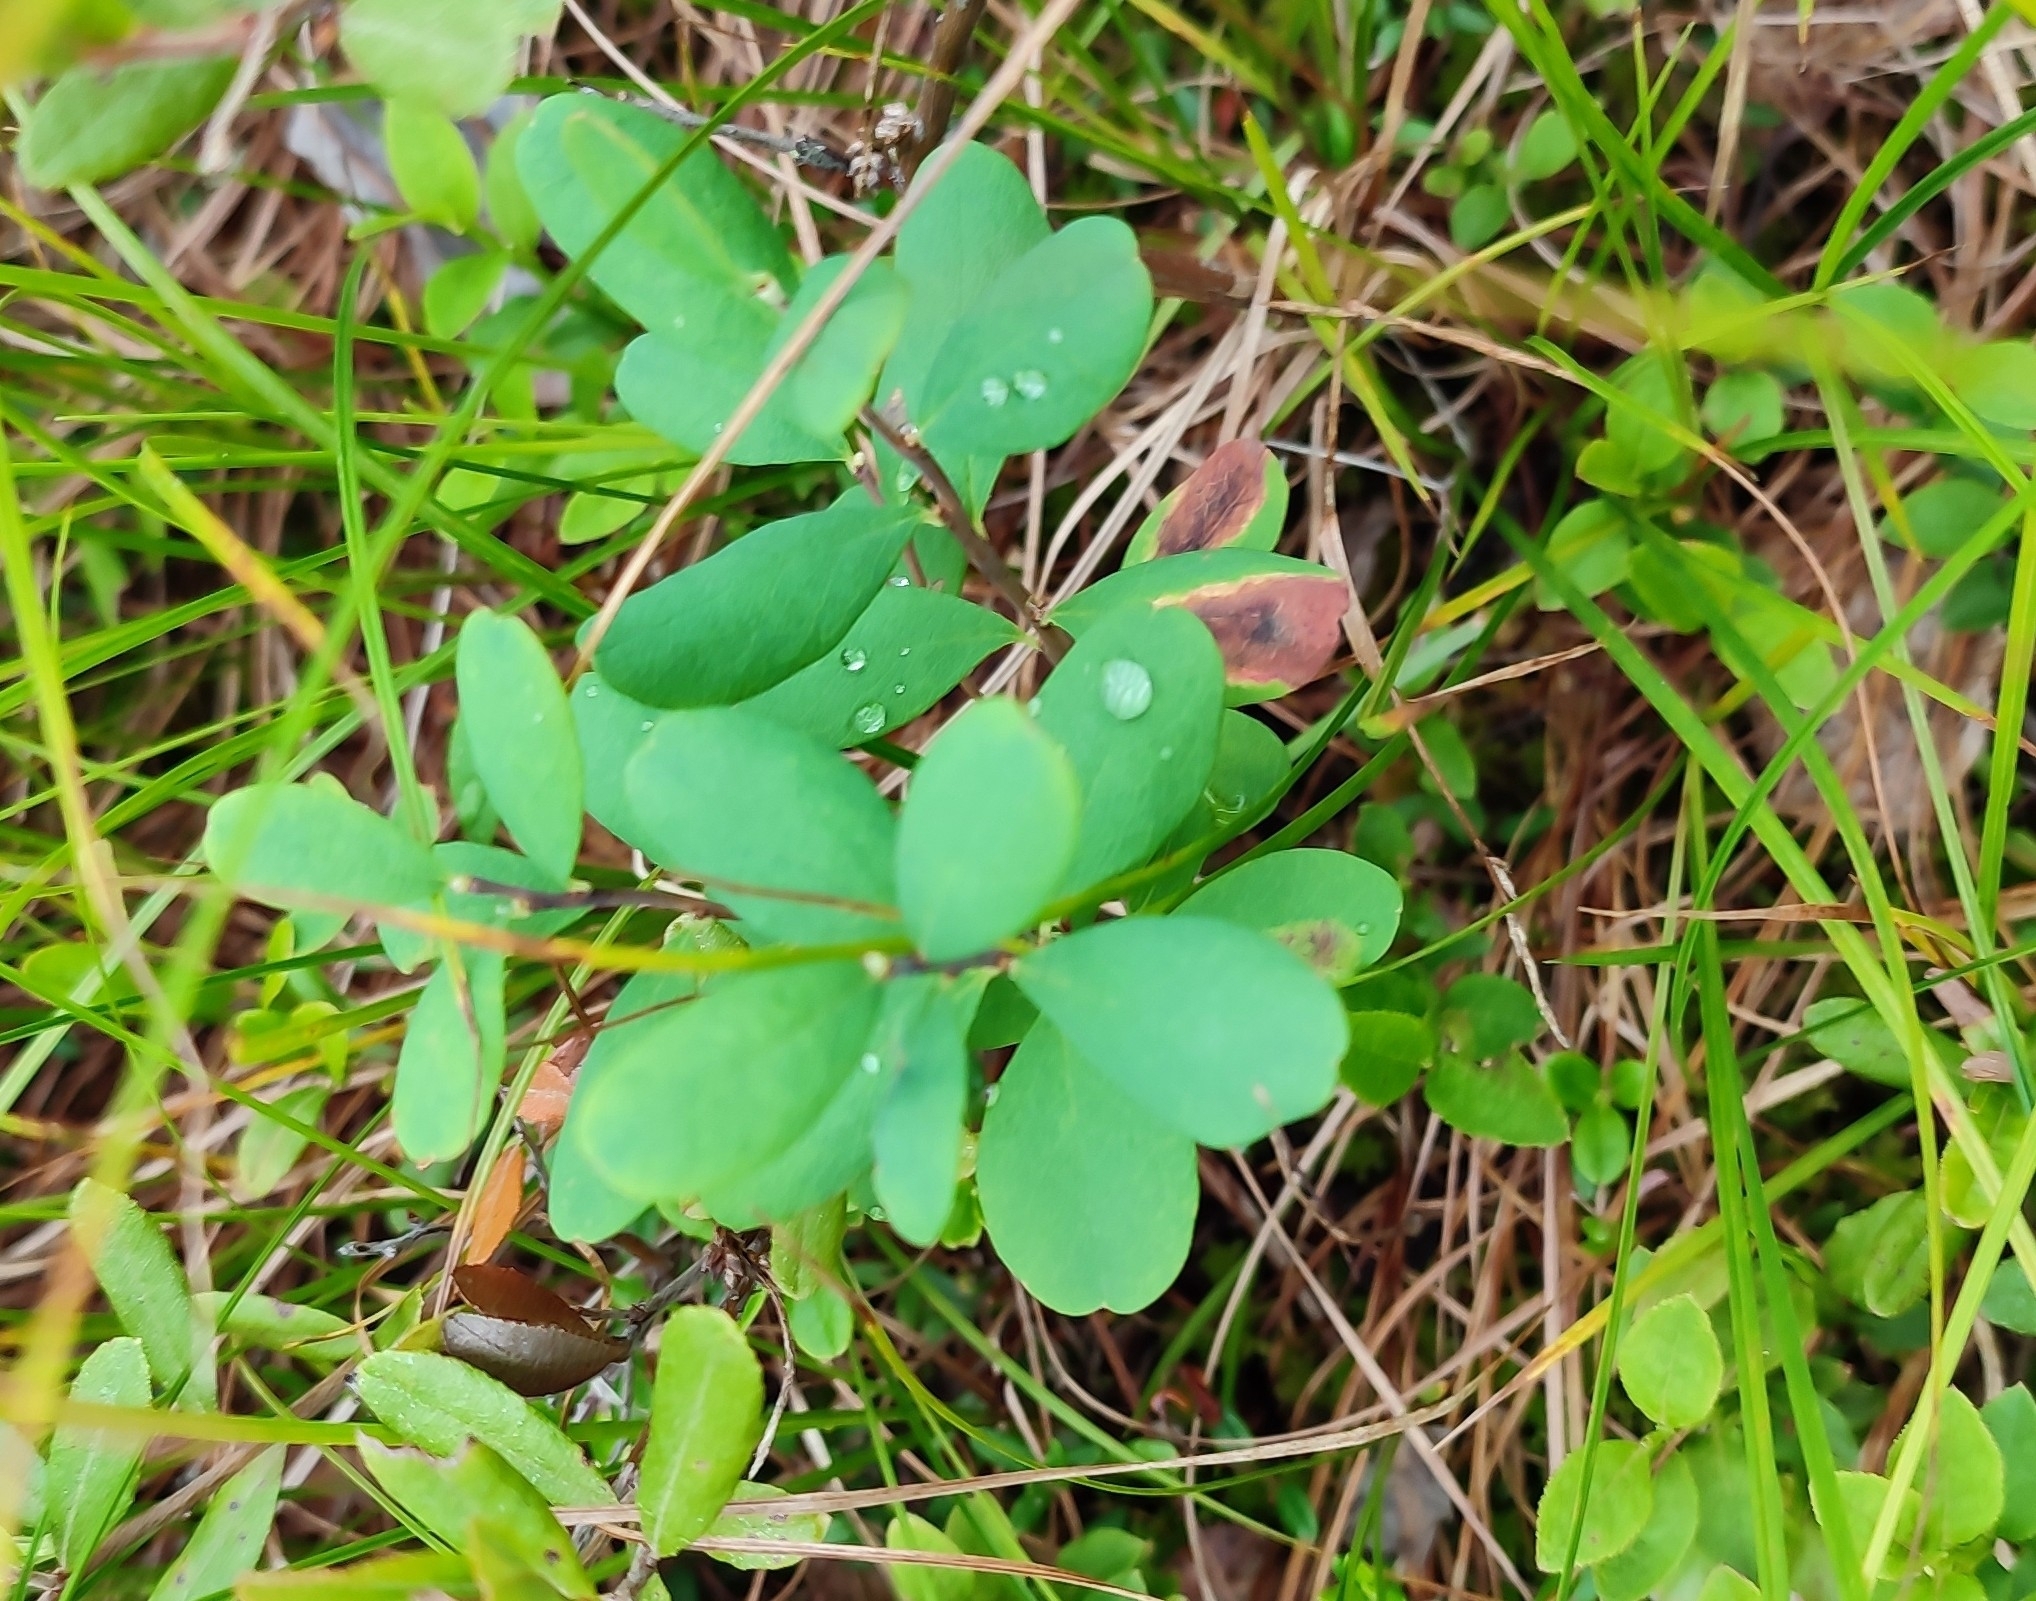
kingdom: Plantae
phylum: Tracheophyta
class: Magnoliopsida
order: Ericales
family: Ericaceae
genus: Vaccinium
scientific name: Vaccinium uliginosum
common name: Bog bilberry
